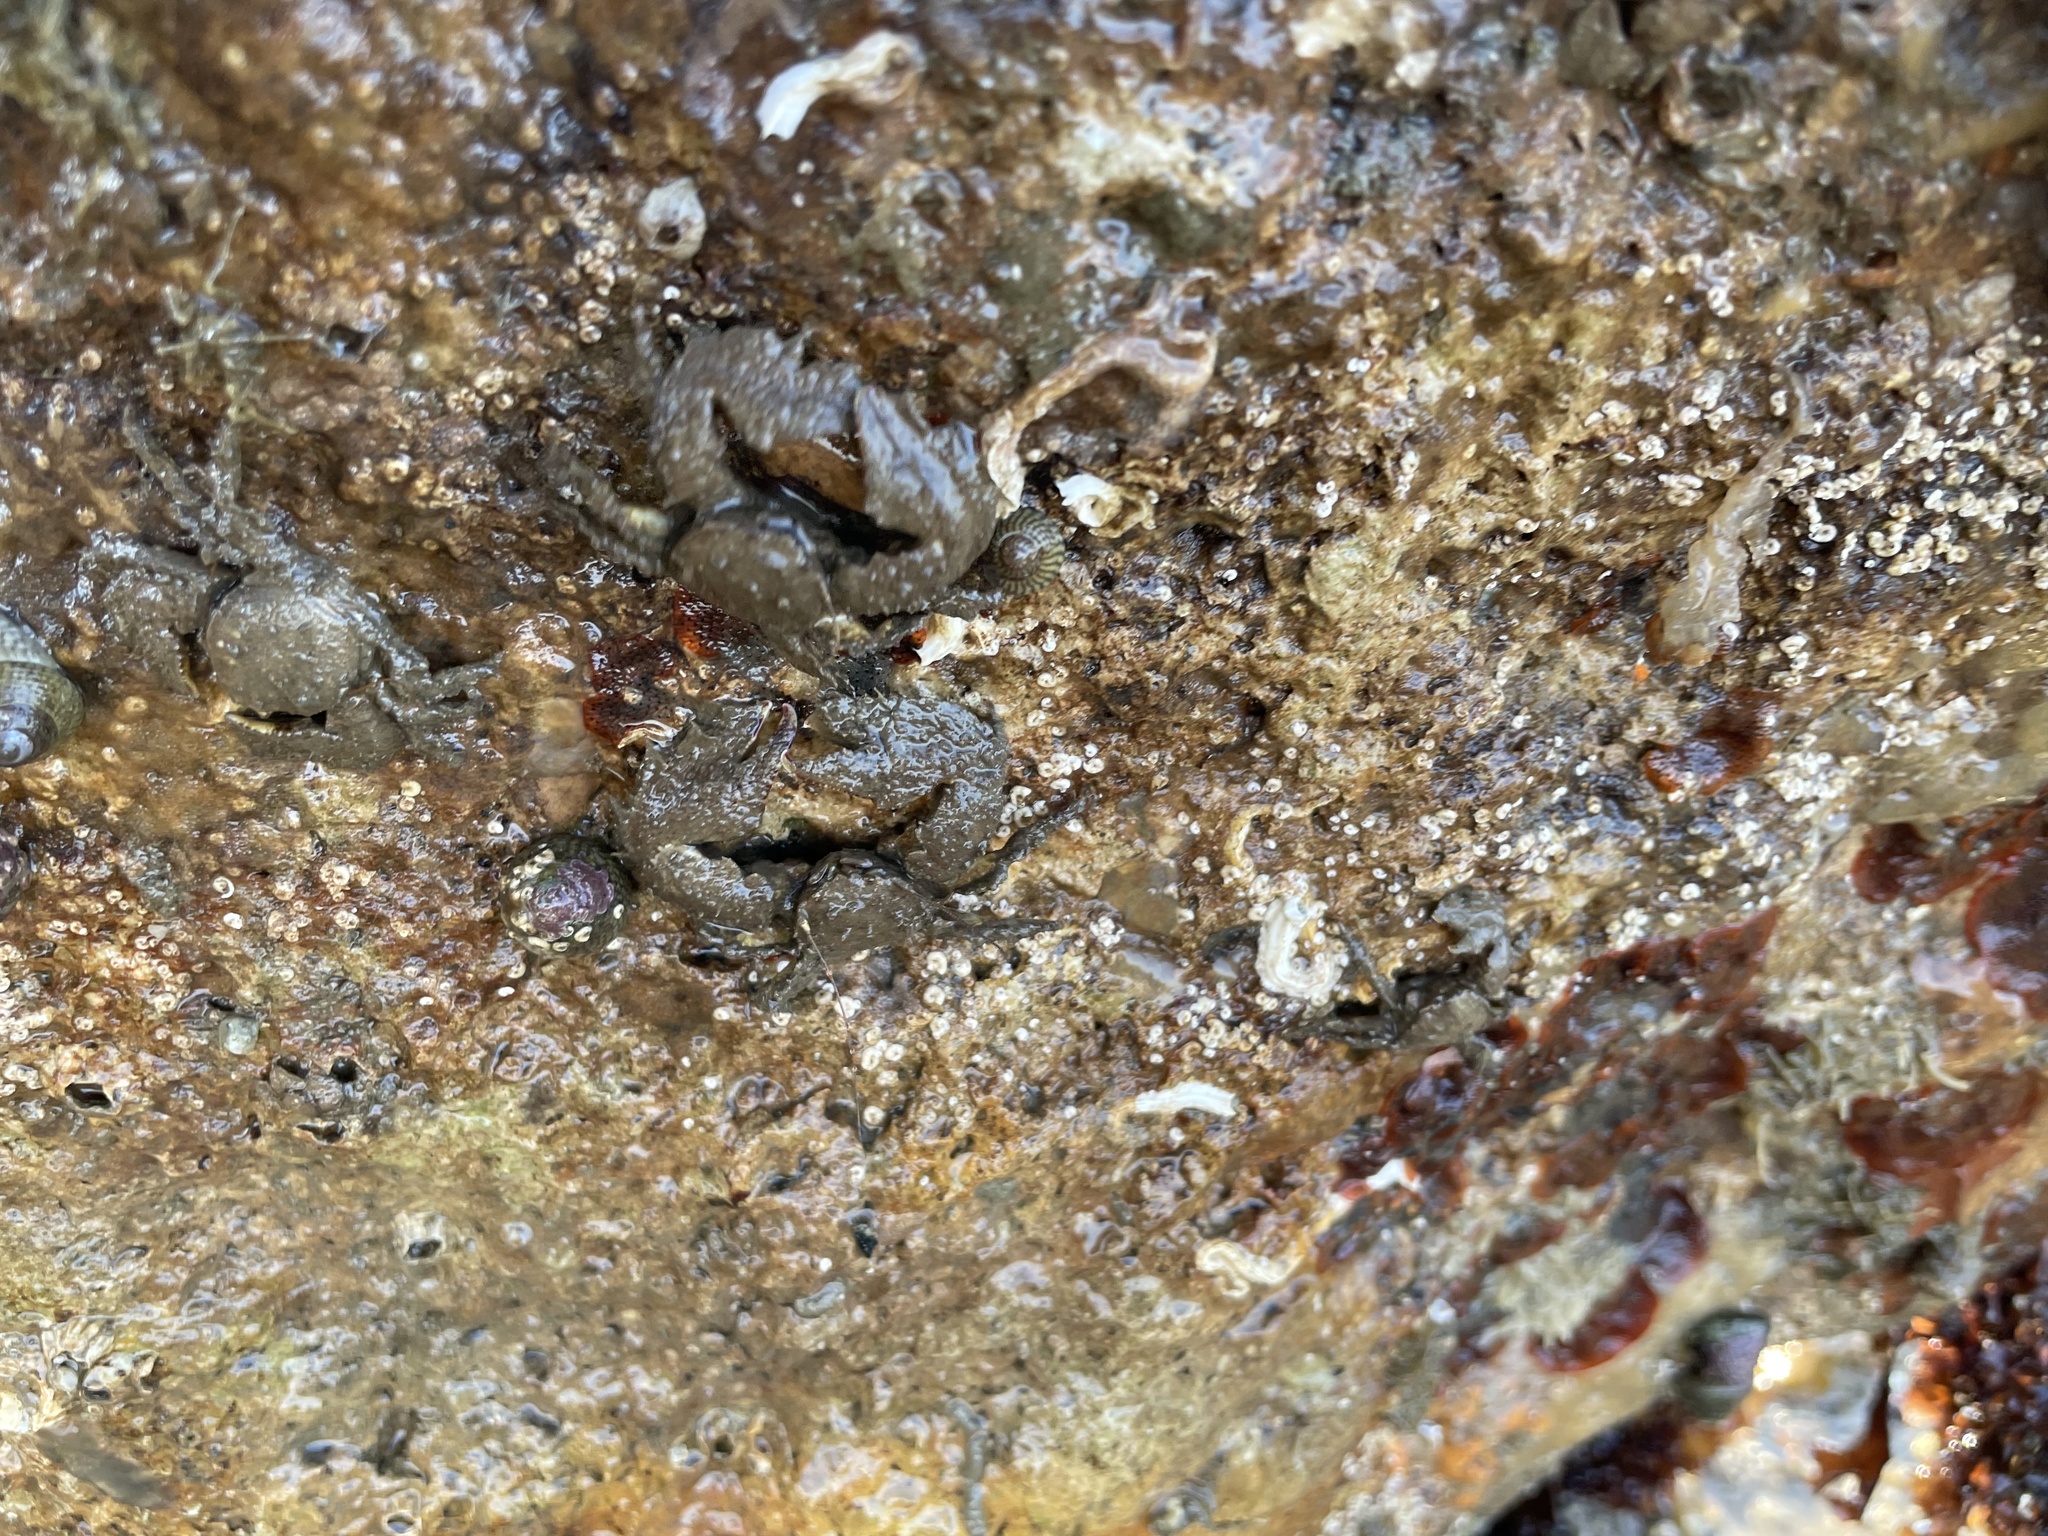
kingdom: Animalia
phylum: Arthropoda
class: Malacostraca
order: Decapoda
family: Porcellanidae
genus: Porcellana
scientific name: Porcellana platycheles
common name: Porcelain crab
